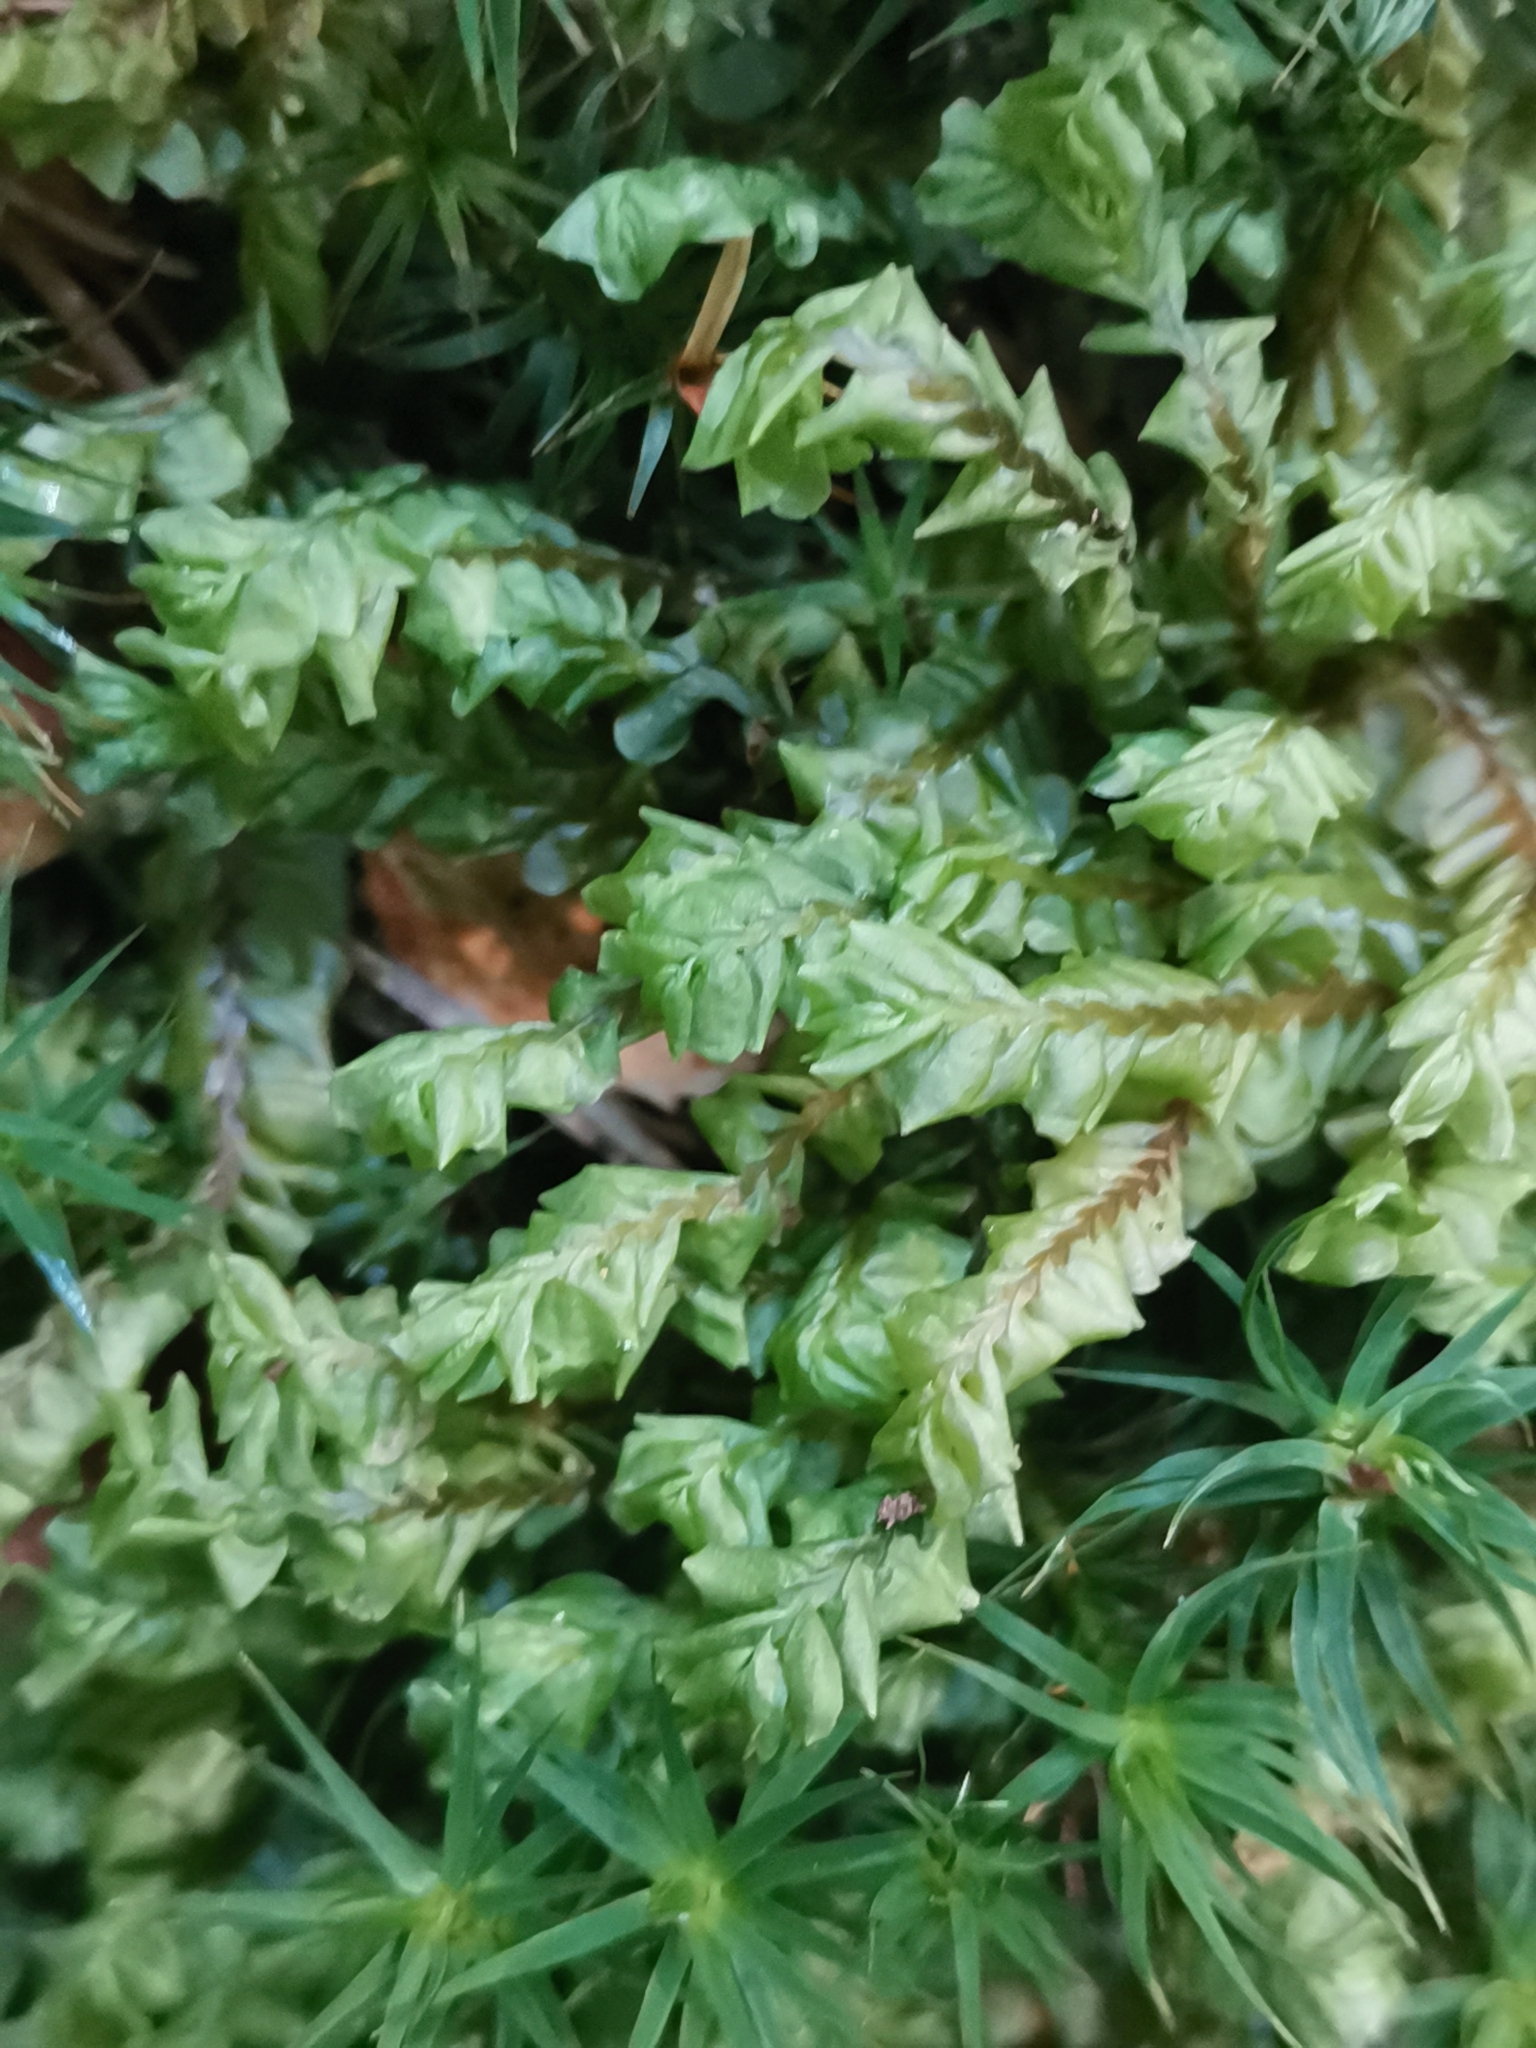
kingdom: Plantae
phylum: Marchantiophyta
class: Jungermanniopsida
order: Jungermanniales
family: Plagiochilaceae
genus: Plagiochila
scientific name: Plagiochila asplenioides
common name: Greater featherwort
